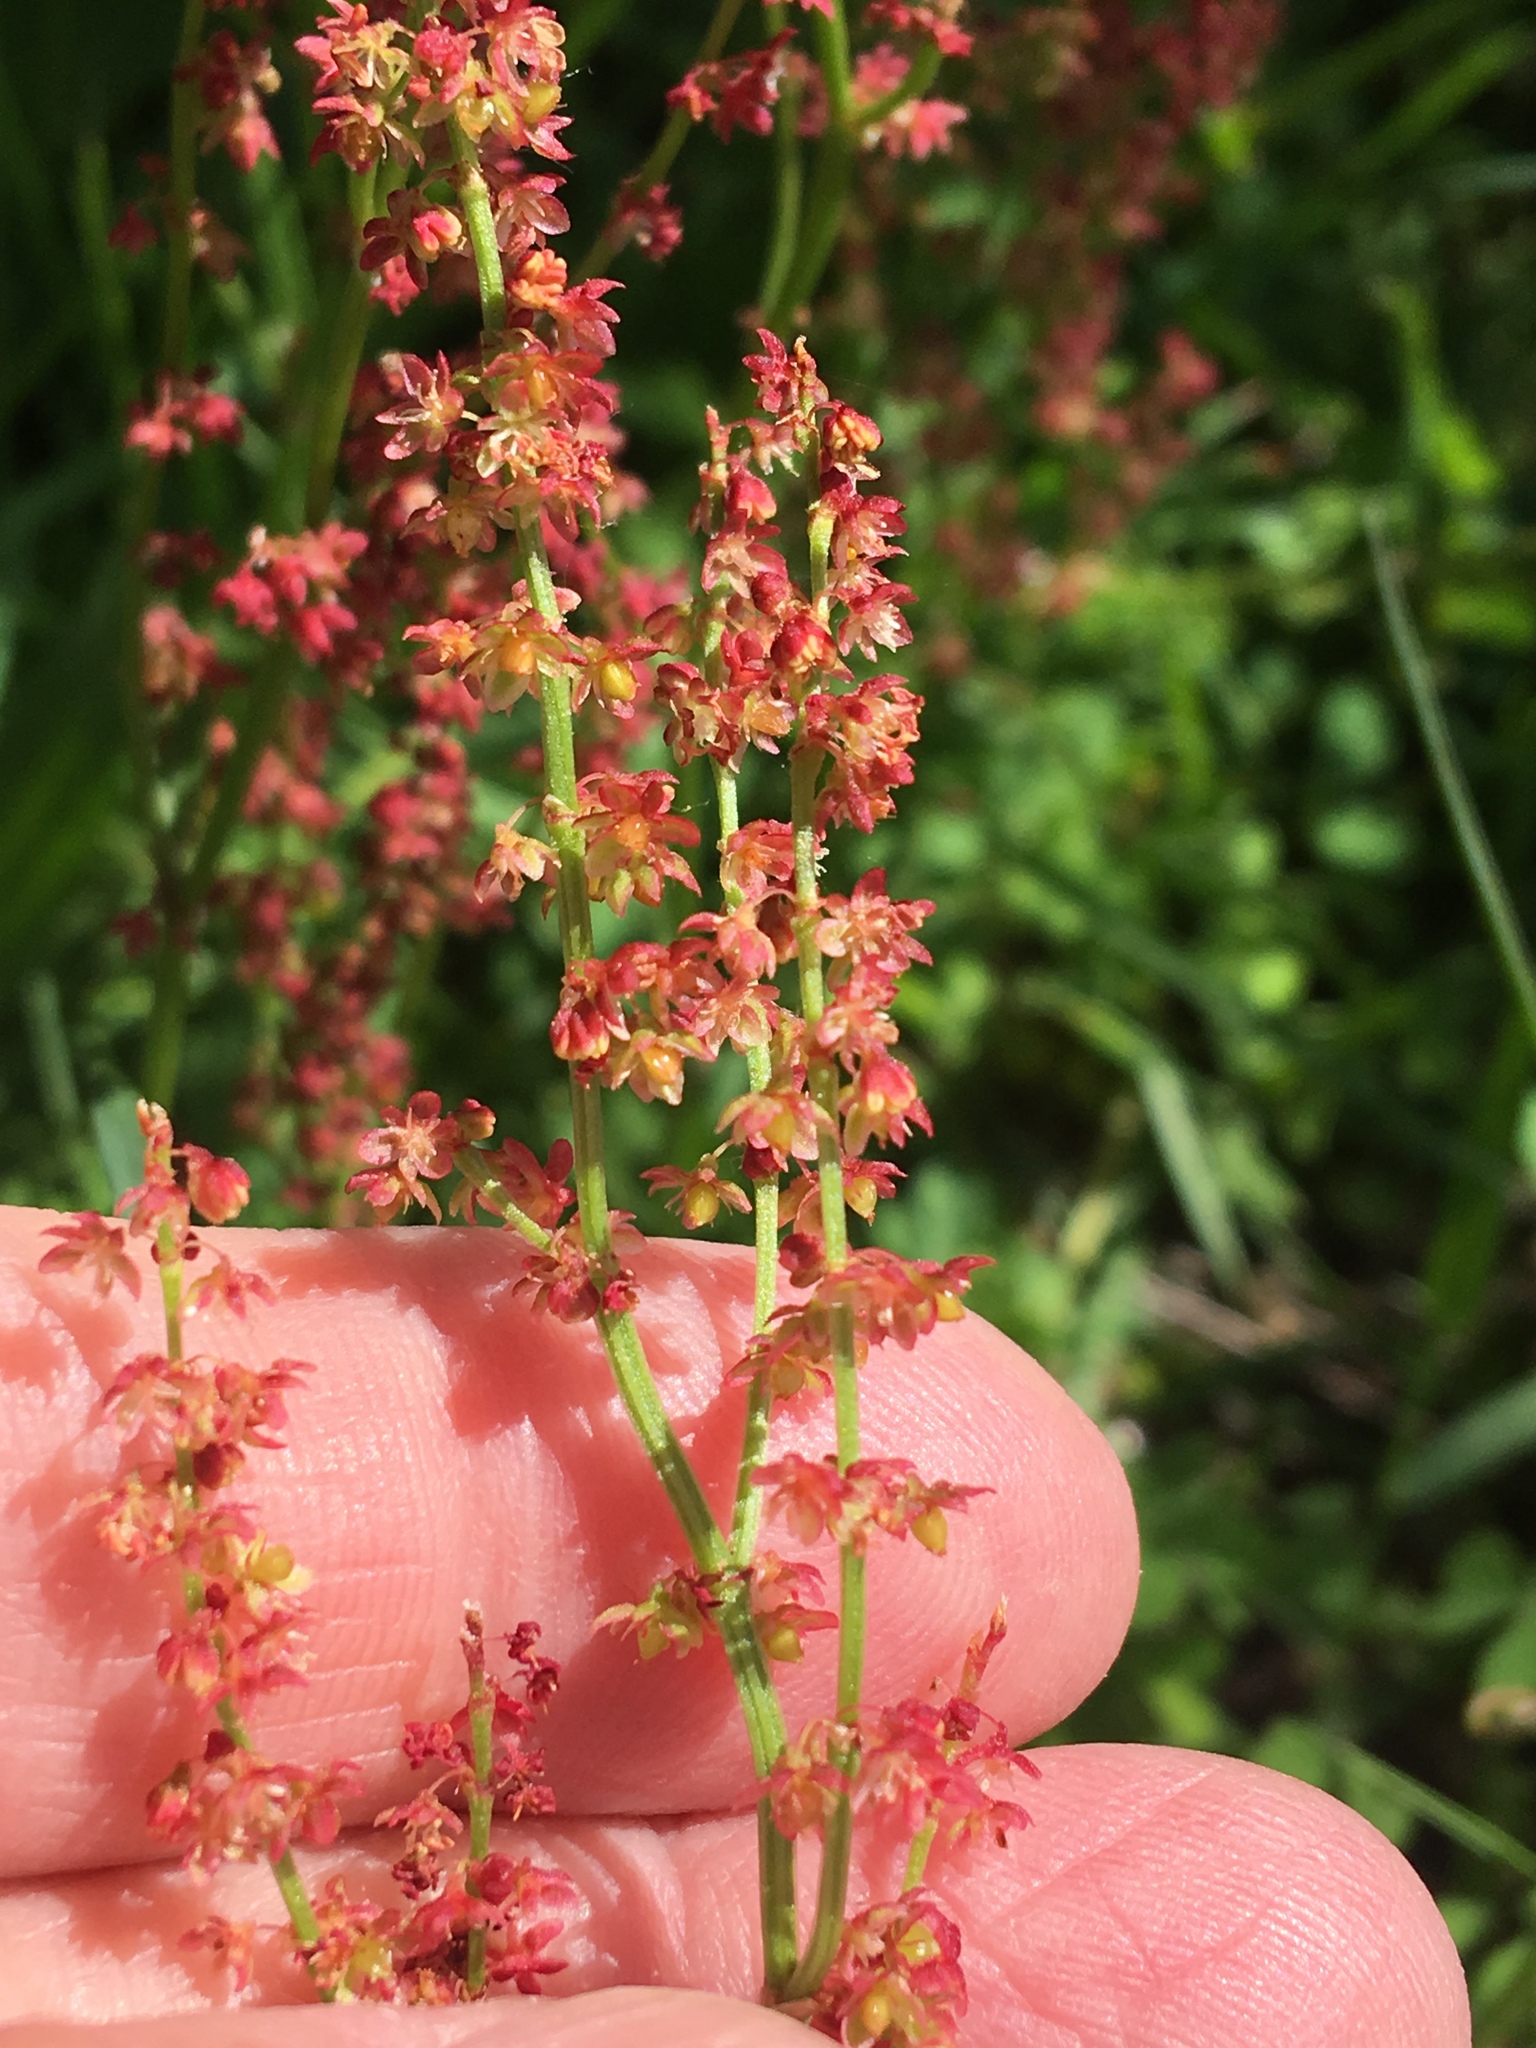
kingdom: Plantae
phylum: Tracheophyta
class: Magnoliopsida
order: Caryophyllales
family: Polygonaceae
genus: Rumex
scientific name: Rumex acetosella
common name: Common sheep sorrel
